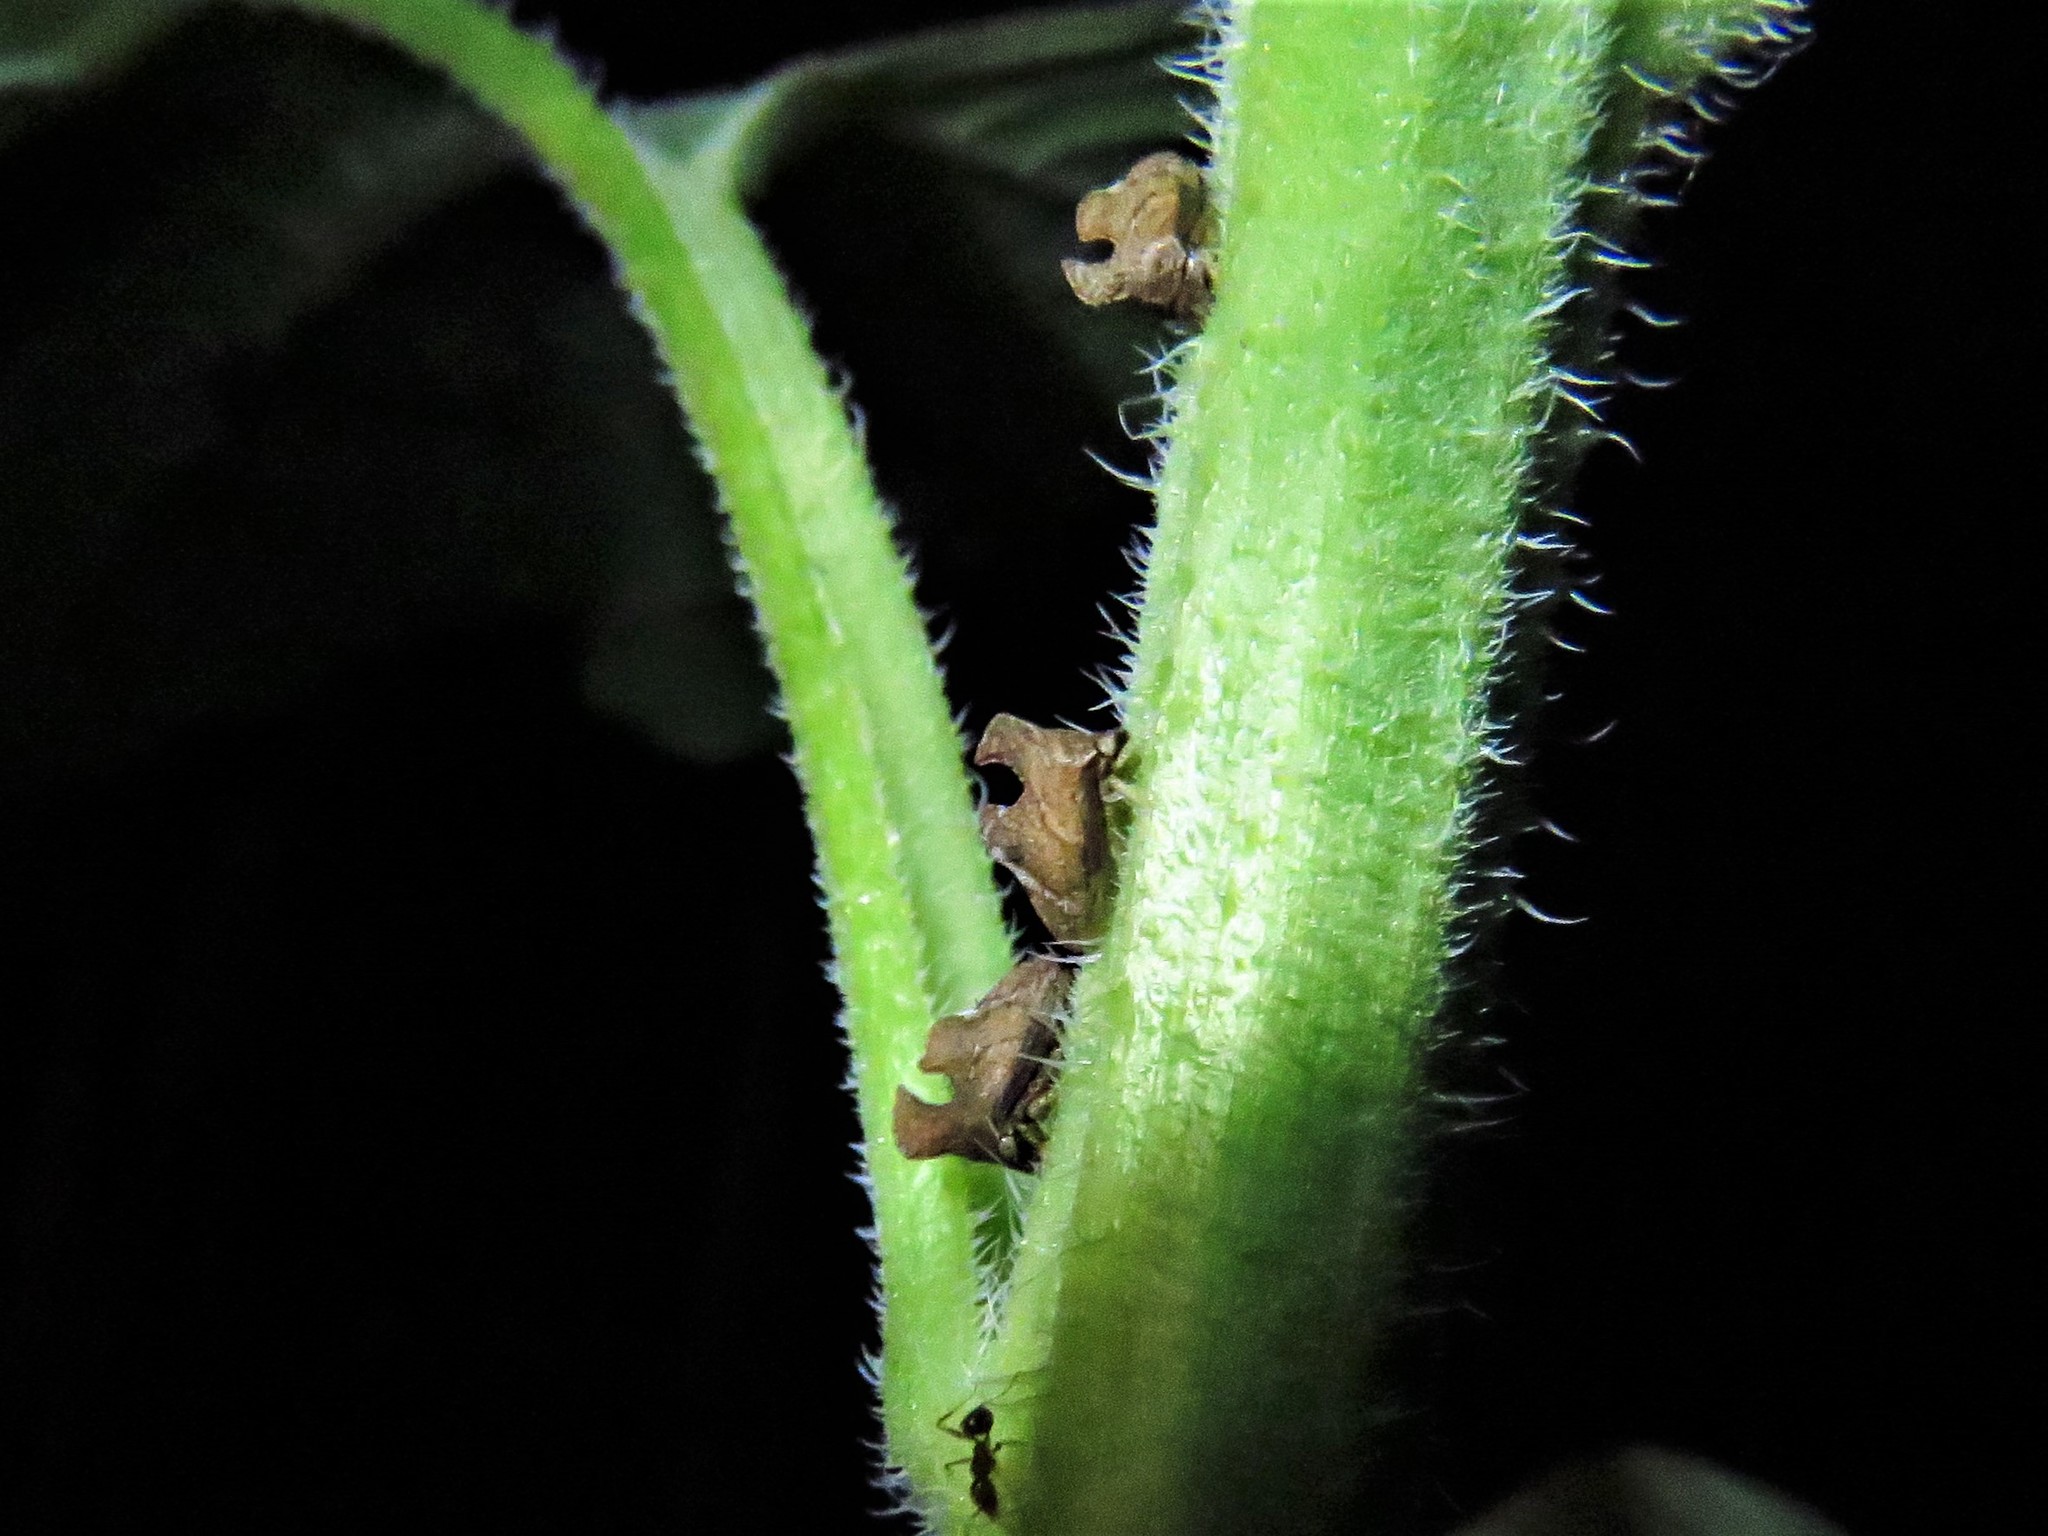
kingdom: Animalia
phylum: Arthropoda
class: Insecta
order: Hemiptera
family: Membracidae
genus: Entylia
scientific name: Entylia carinata
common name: Keeled treehopper
